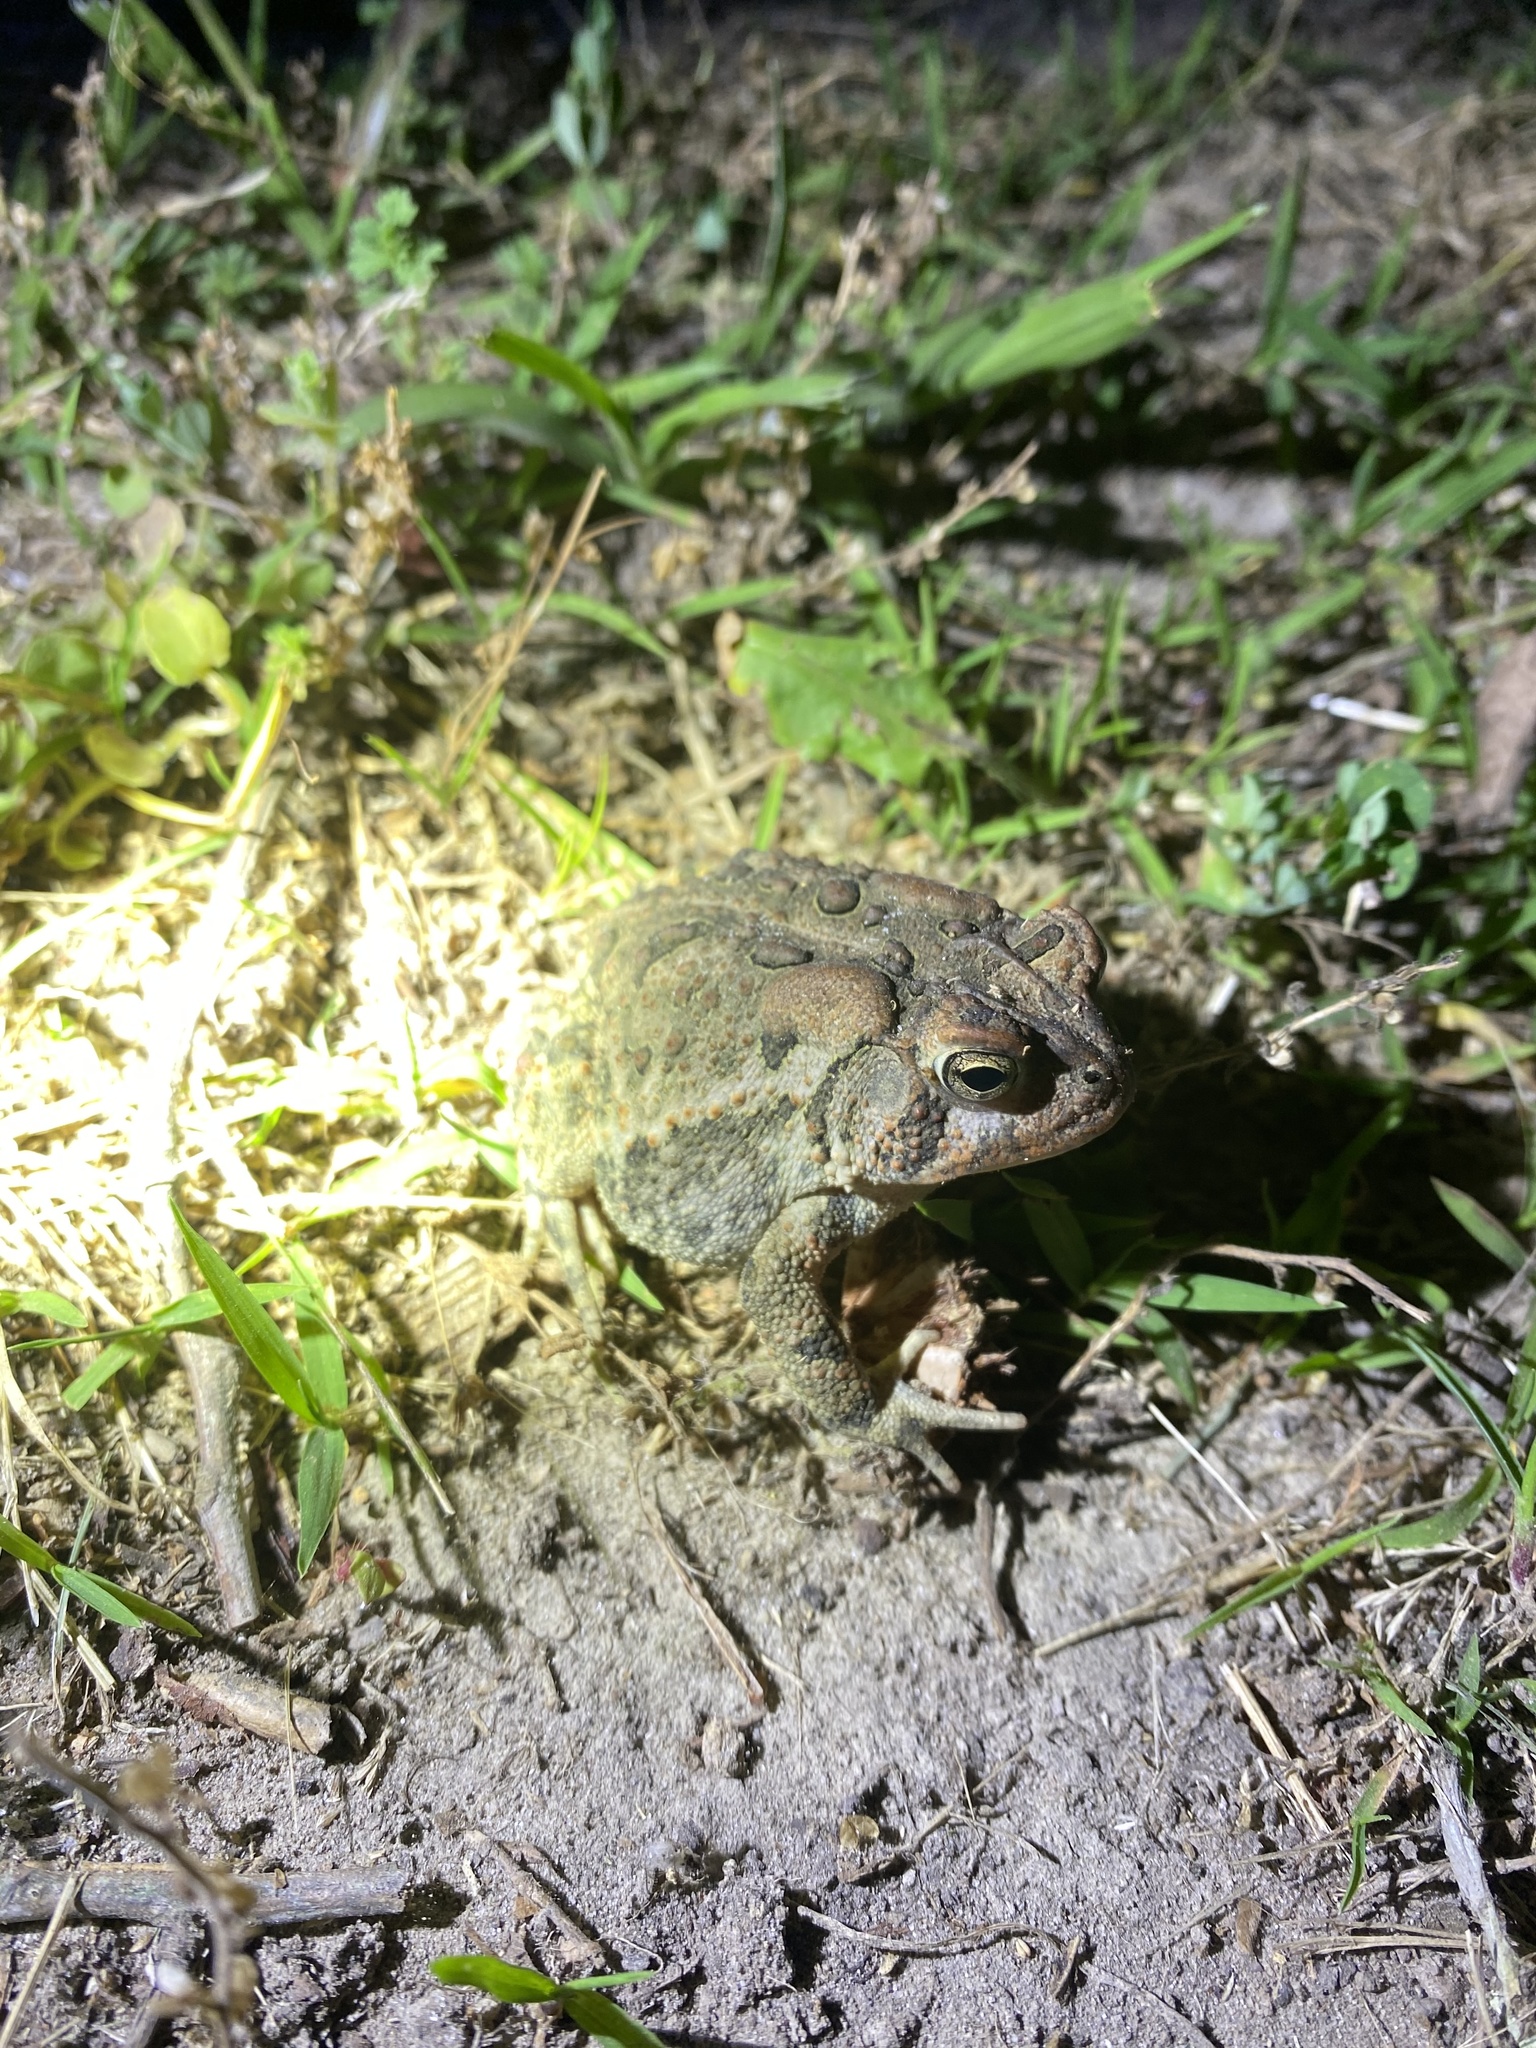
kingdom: Animalia
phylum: Chordata
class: Amphibia
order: Anura
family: Bufonidae
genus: Anaxyrus
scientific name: Anaxyrus terrestris
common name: Southern toad
